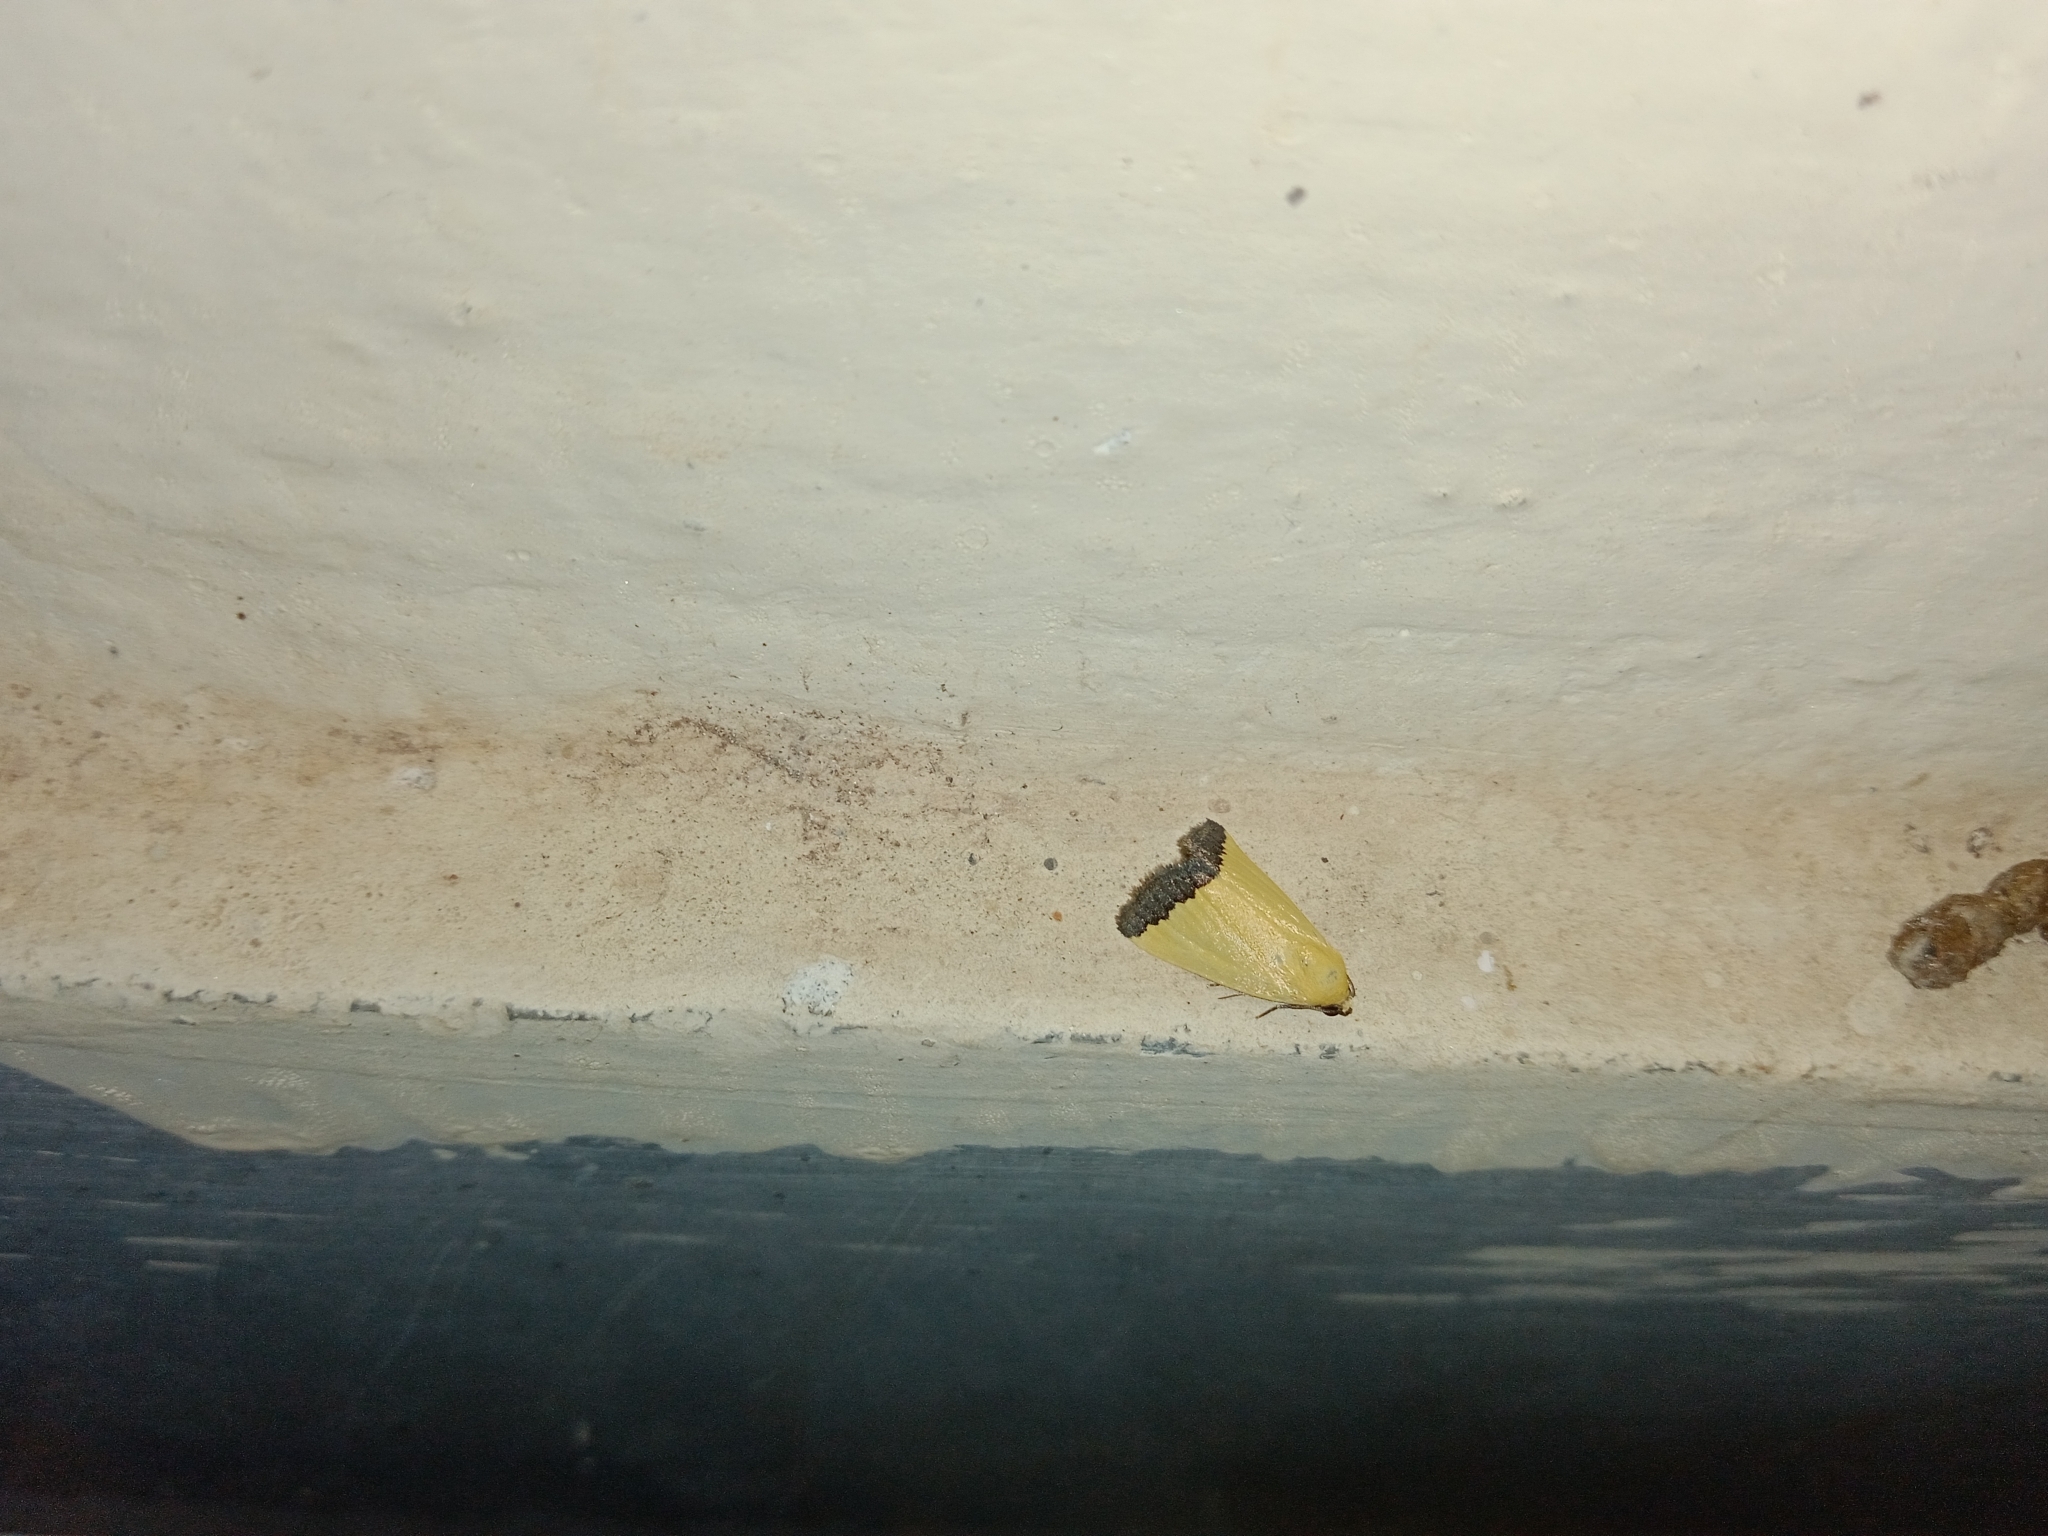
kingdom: Animalia
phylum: Arthropoda
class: Insecta
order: Lepidoptera
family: Noctuidae
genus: Eustrotia
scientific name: Eustrotia marginata
